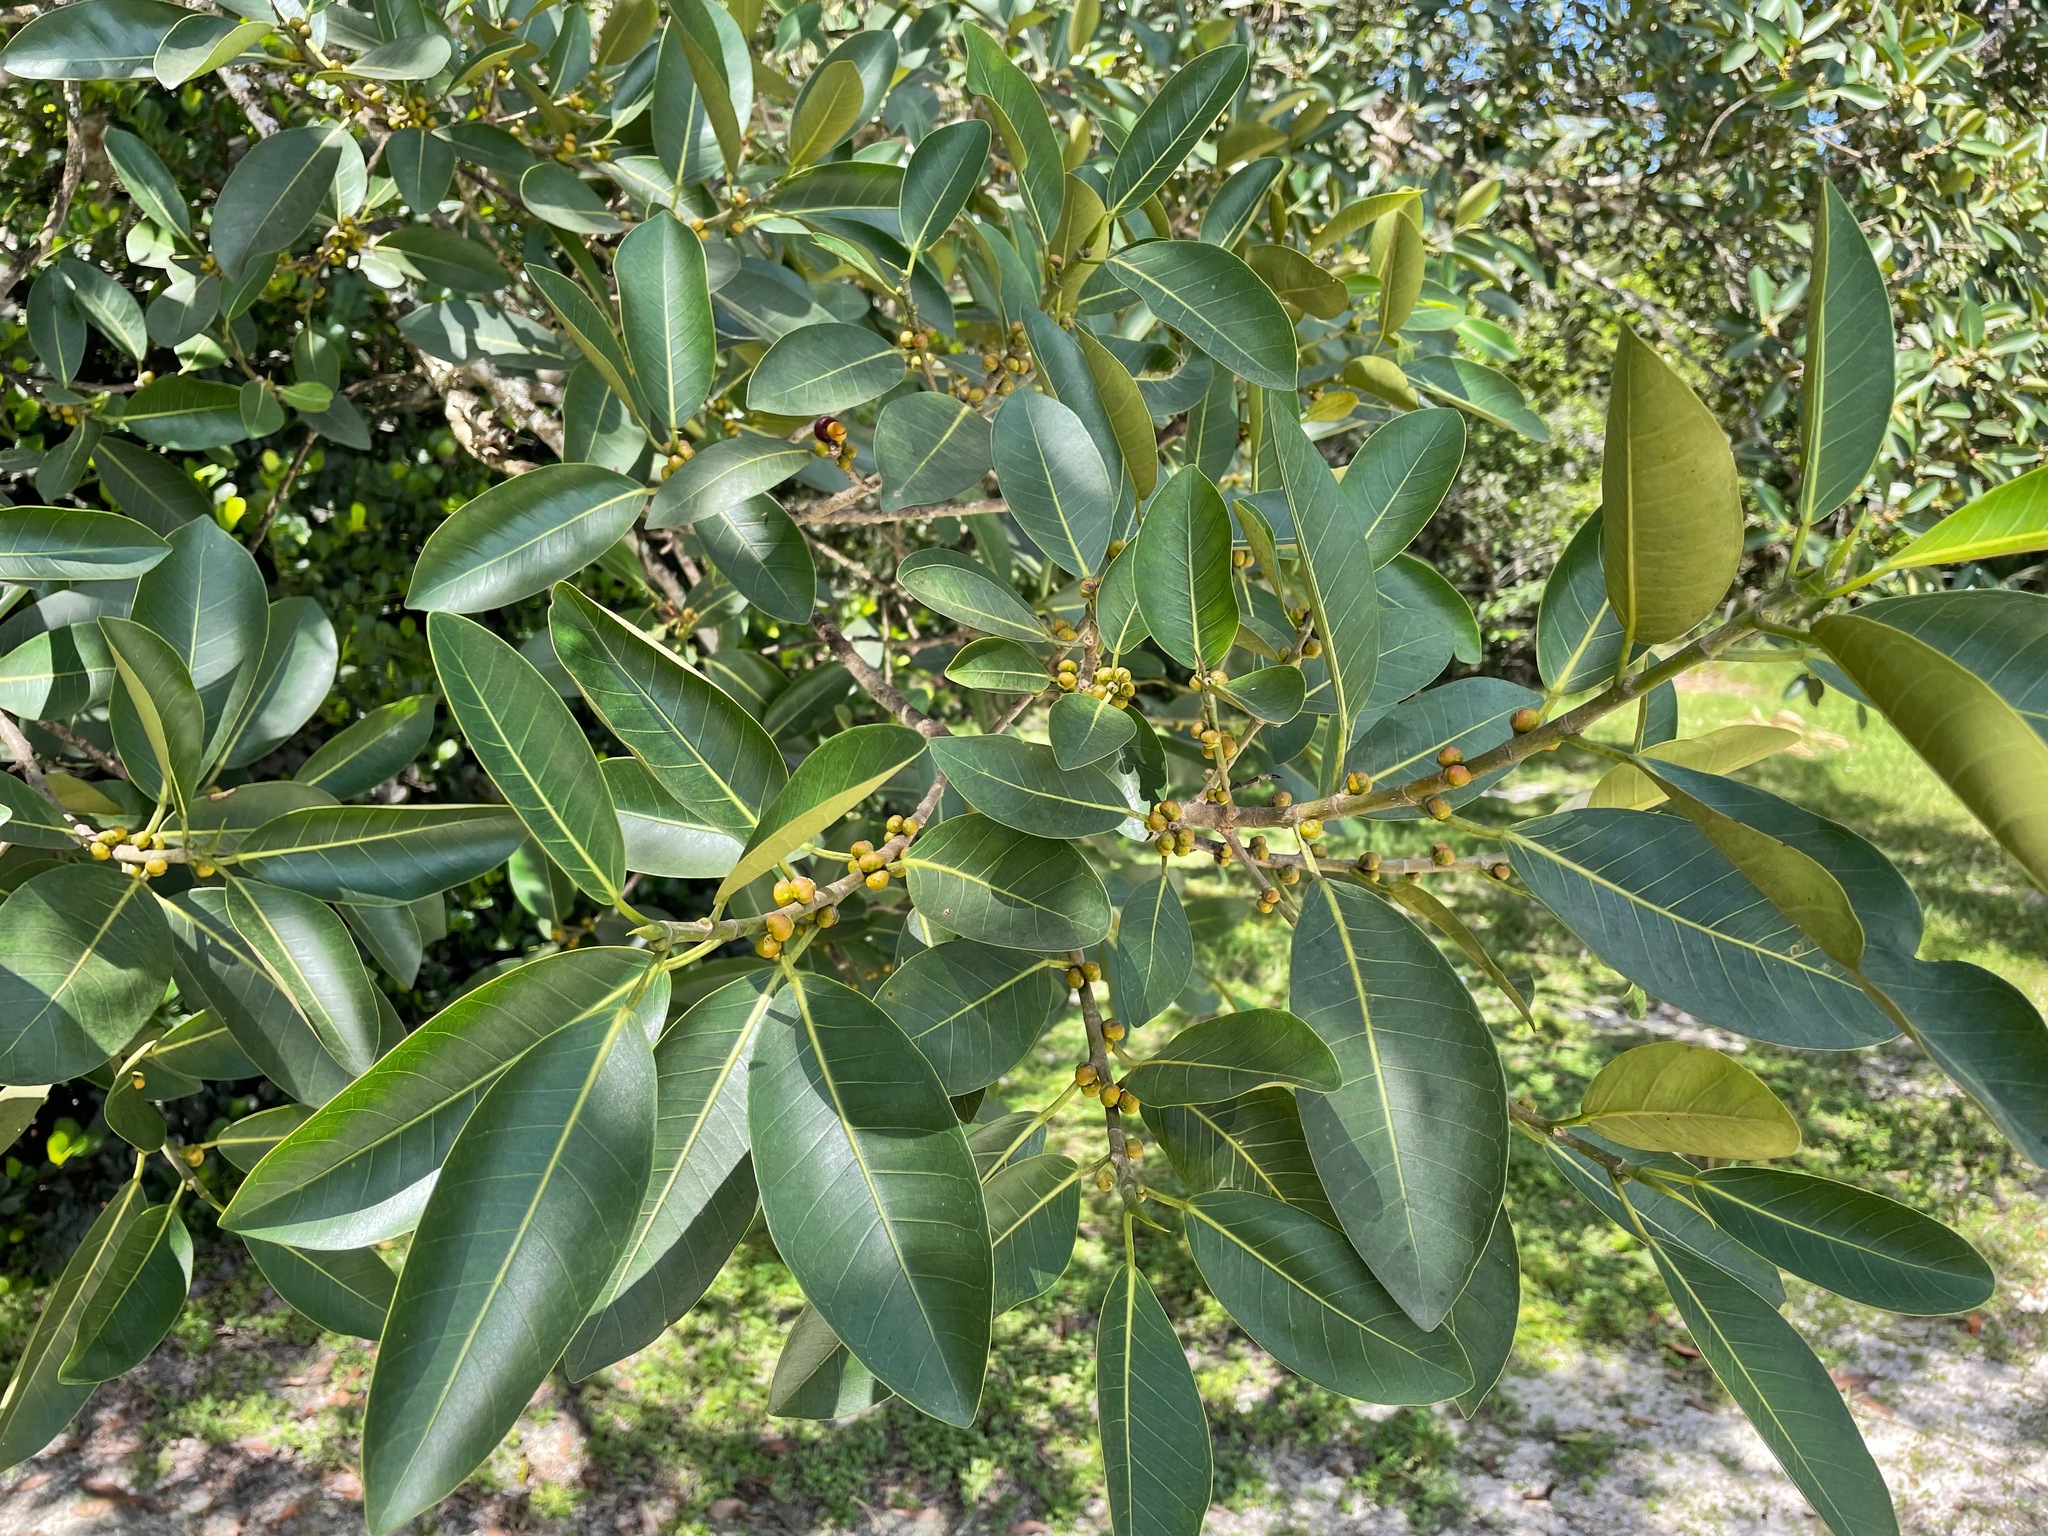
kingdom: Plantae
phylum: Tracheophyta
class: Magnoliopsida
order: Rosales
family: Moraceae
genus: Ficus
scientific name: Ficus aurea
